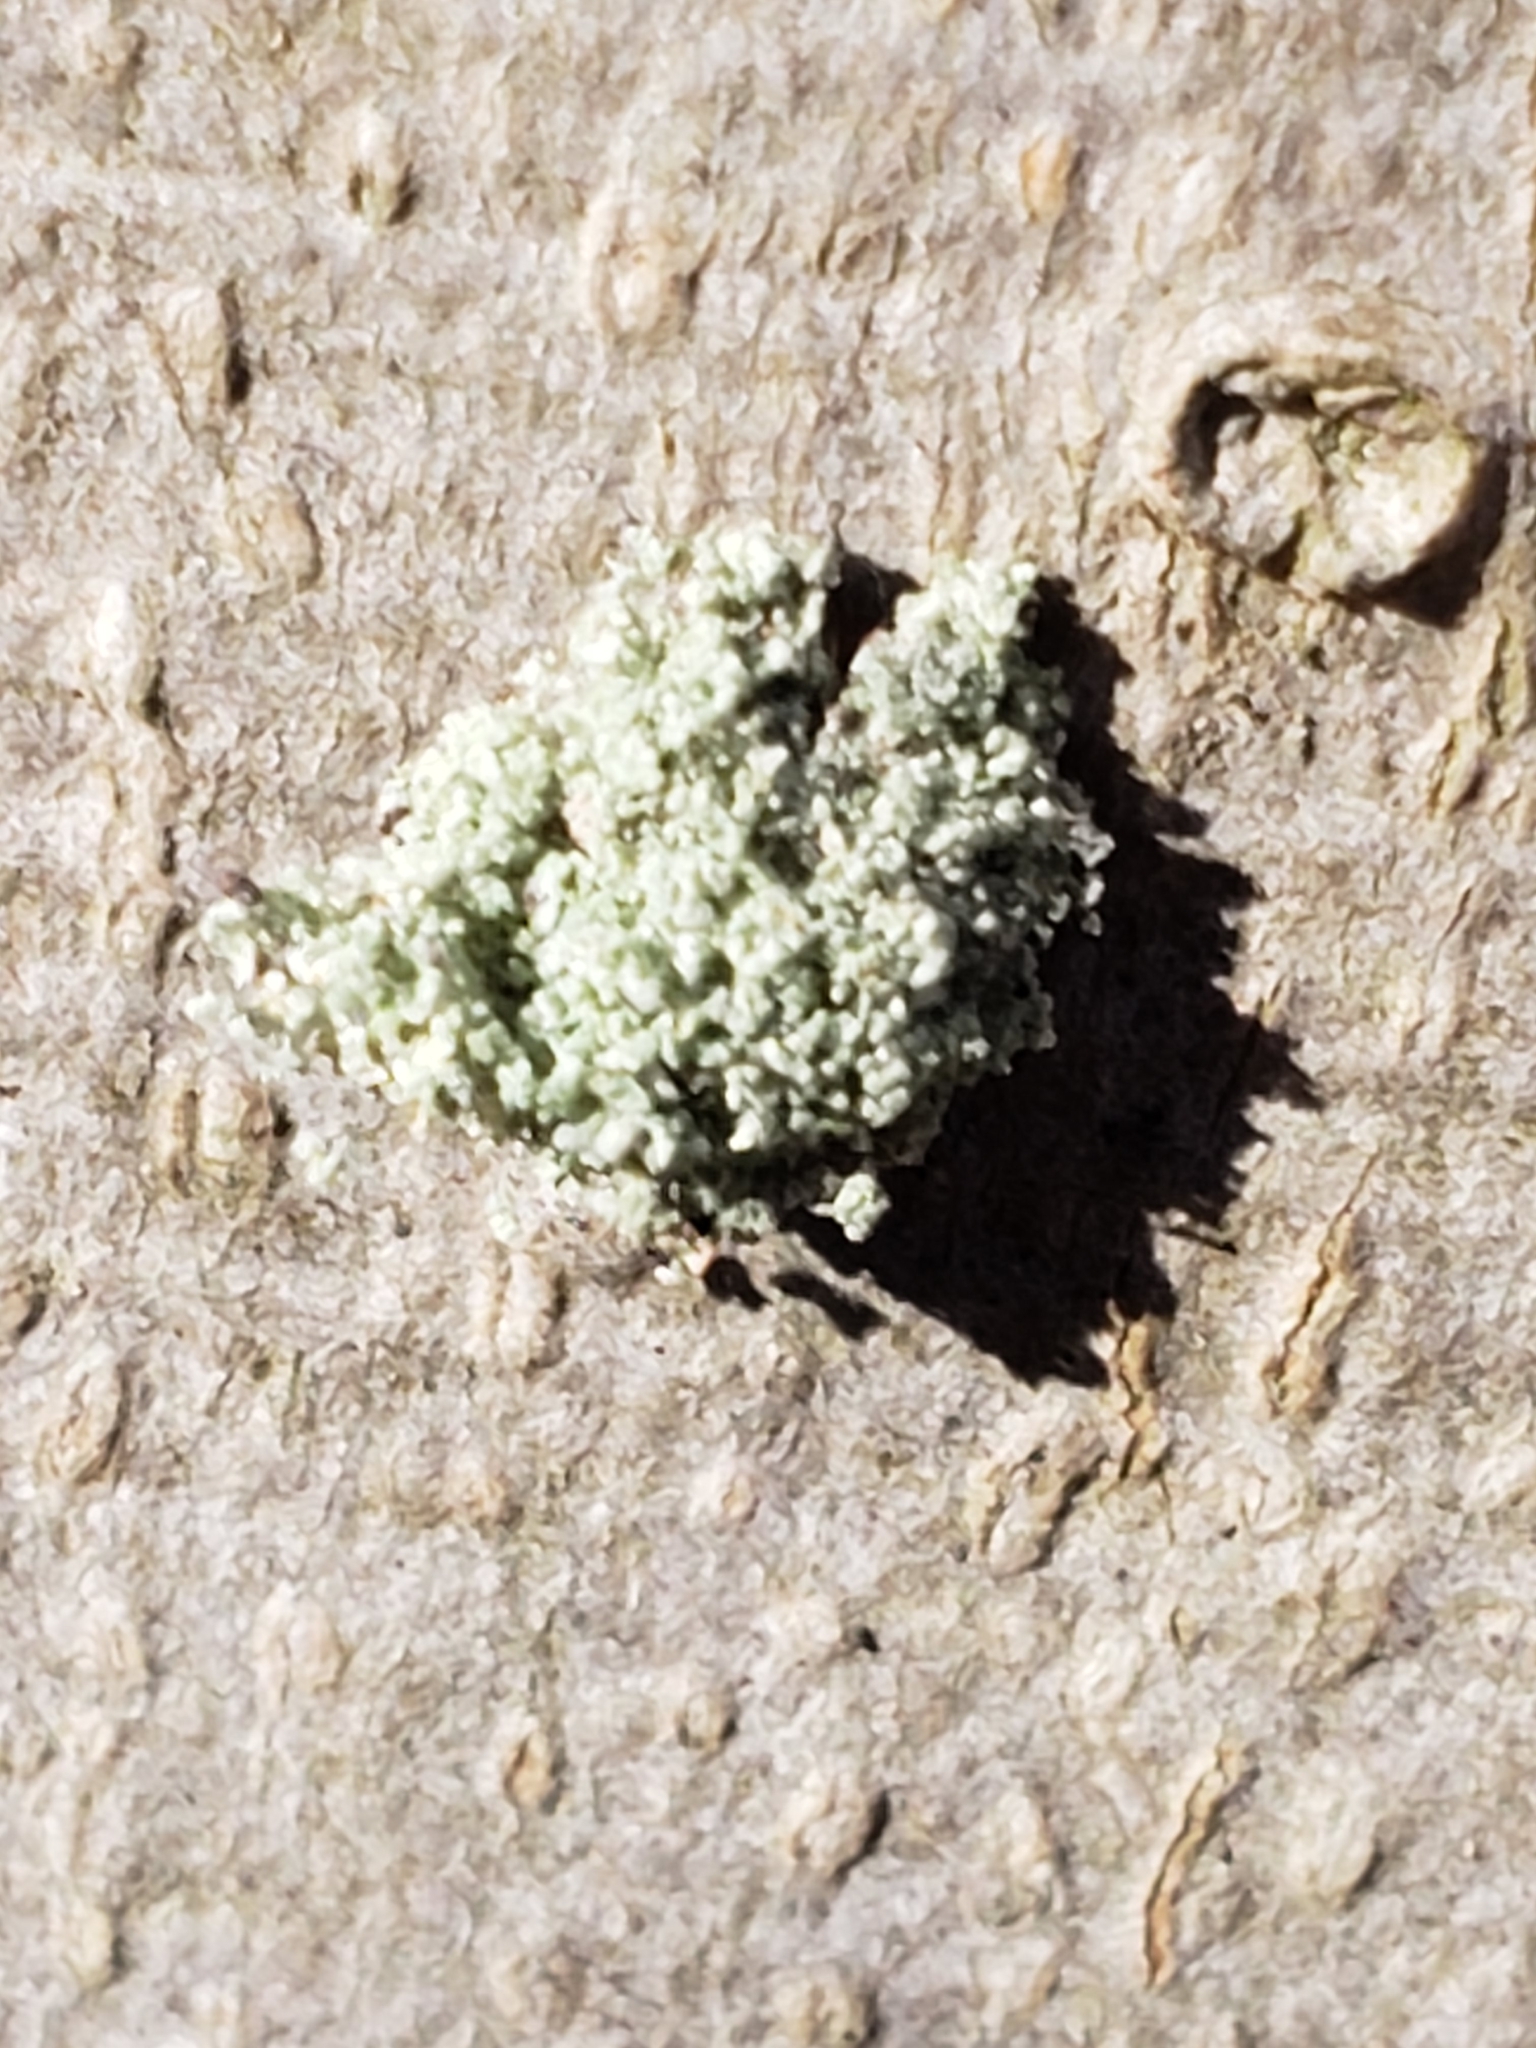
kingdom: Animalia
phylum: Arthropoda
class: Insecta
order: Neuroptera
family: Chrysopidae
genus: Leucochrysa
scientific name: Leucochrysa pavida
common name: Lichen-carrying green lacewing
